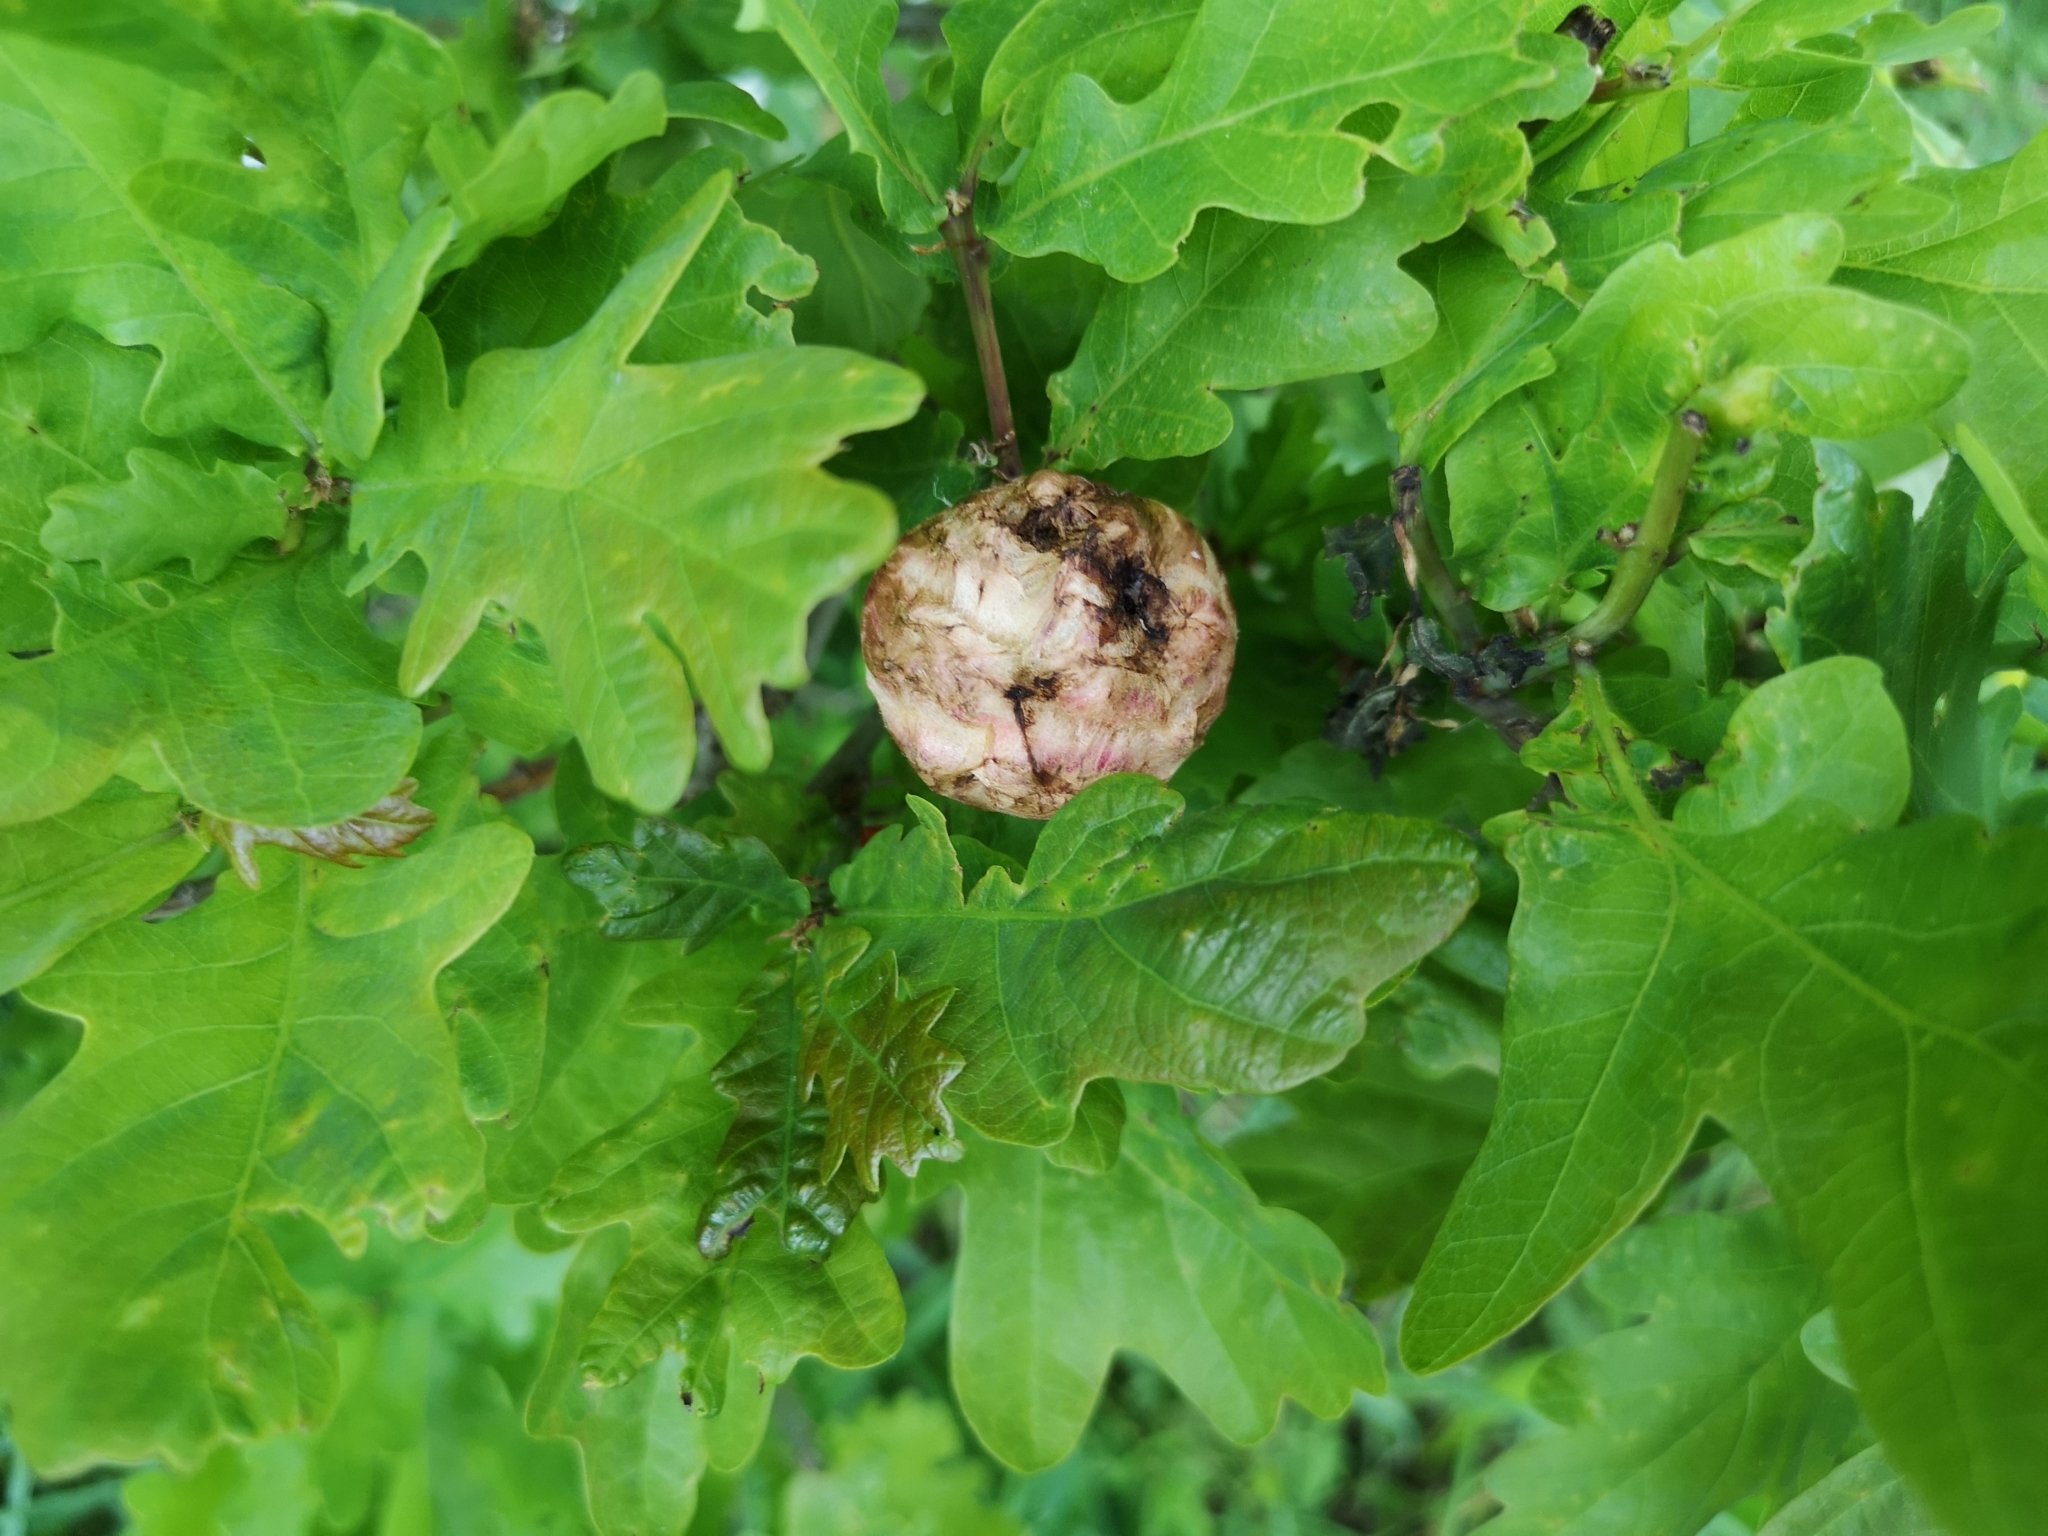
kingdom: Animalia
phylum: Arthropoda
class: Insecta
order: Hymenoptera
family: Cynipidae
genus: Biorhiza
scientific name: Biorhiza pallida
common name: Oak apple
